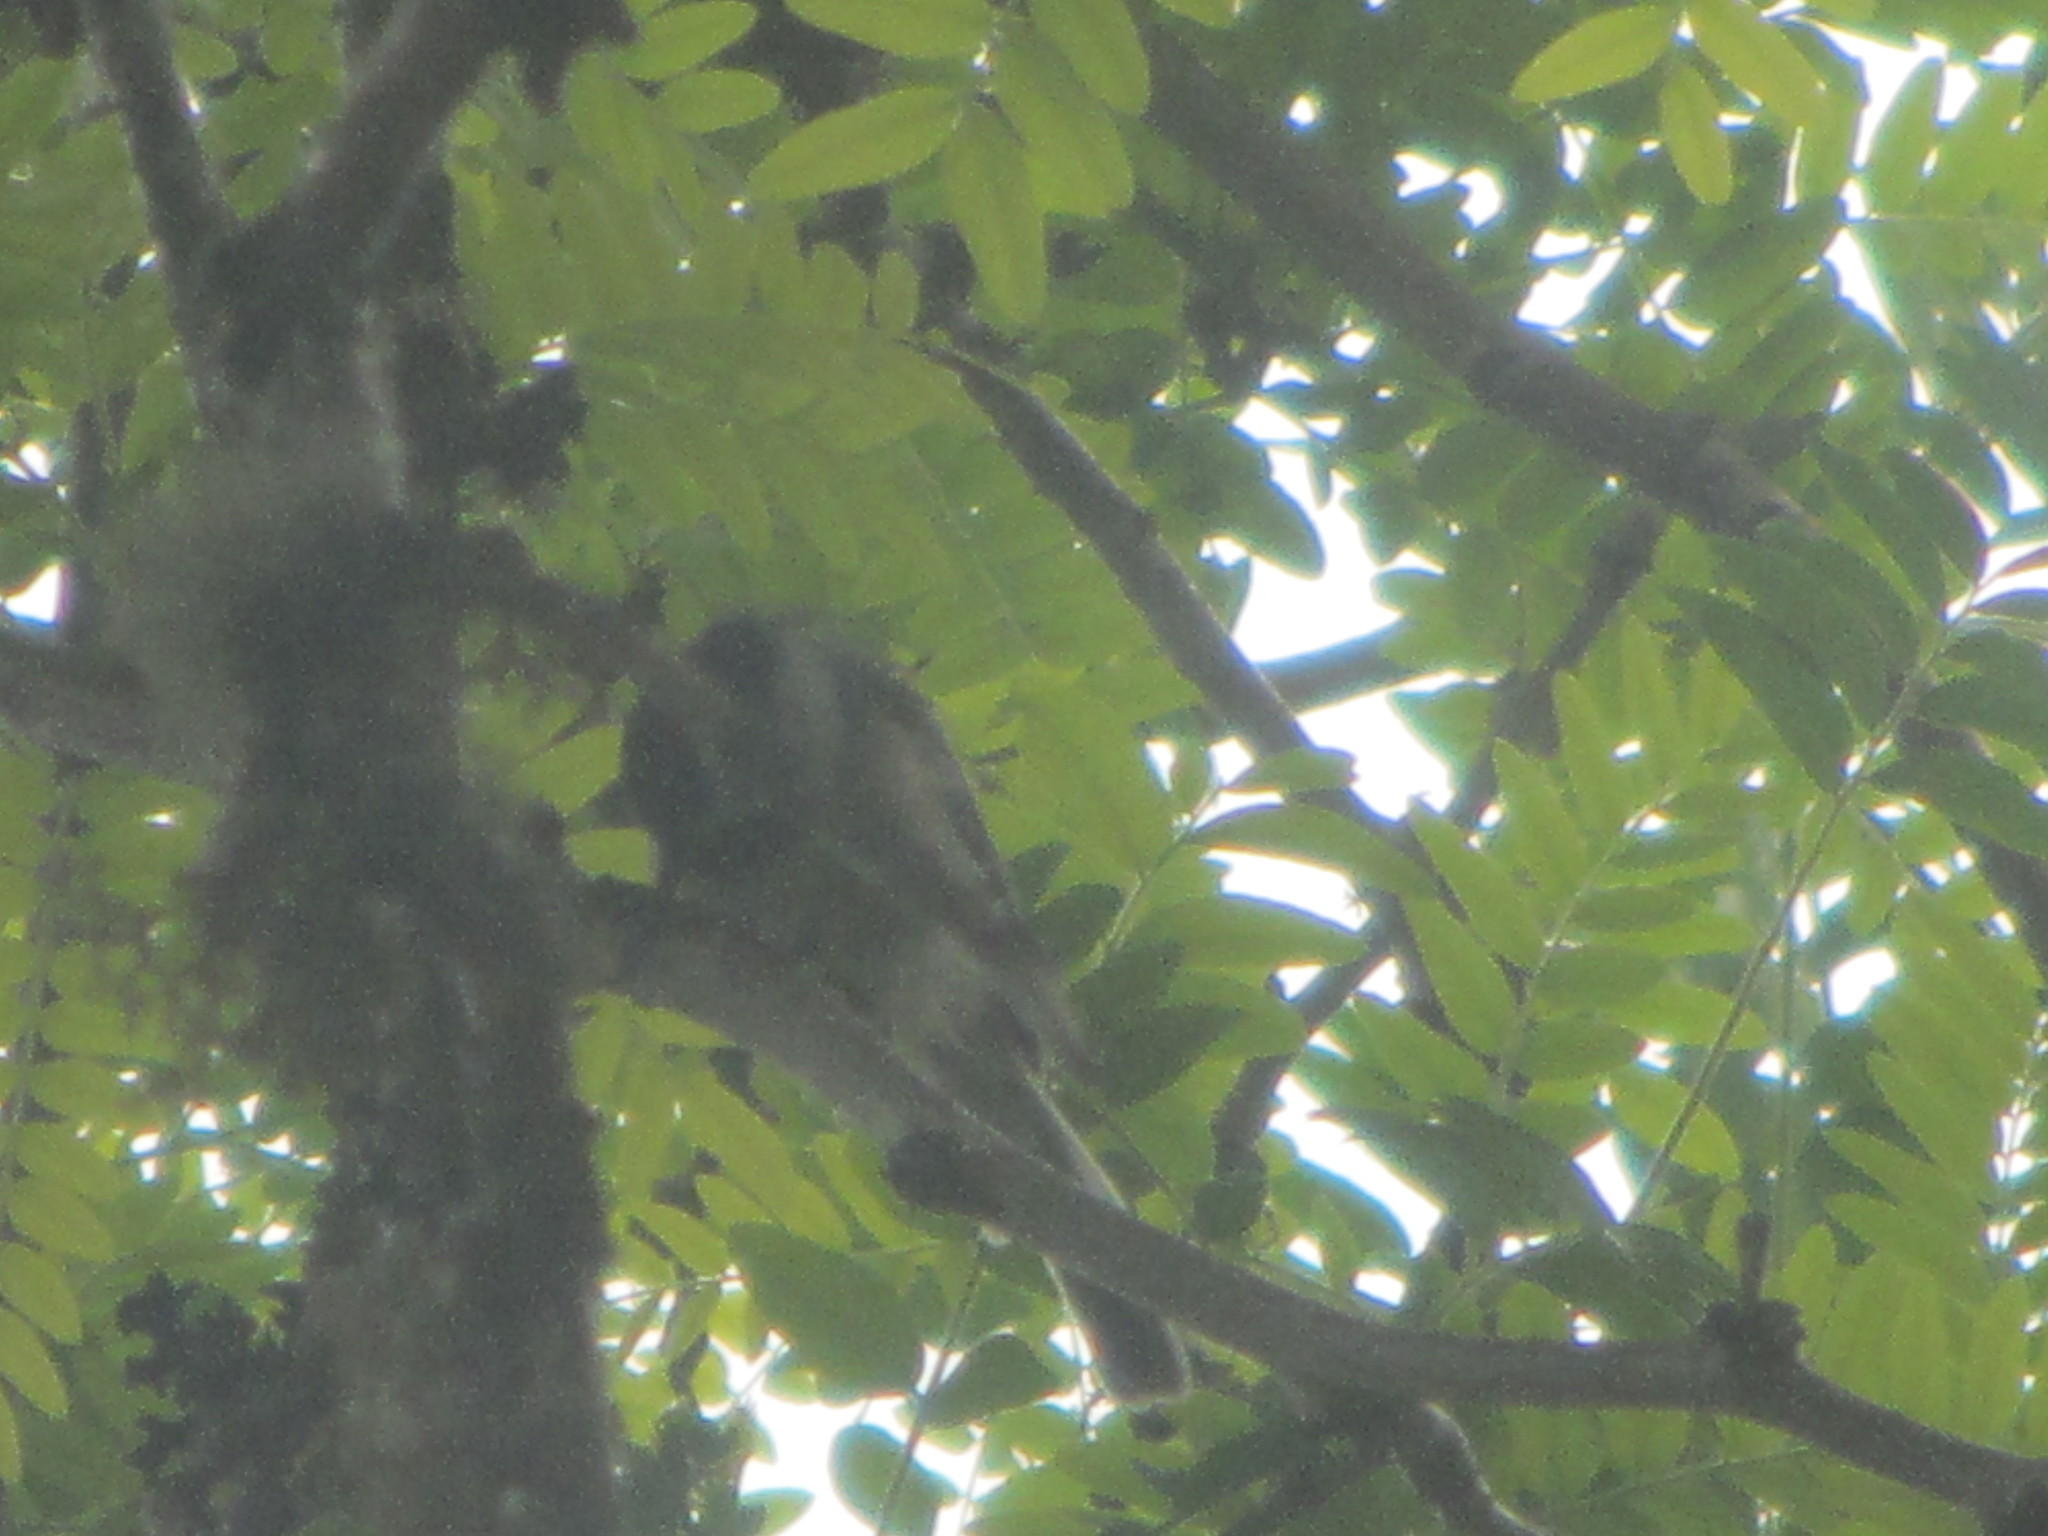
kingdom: Animalia
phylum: Chordata
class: Aves
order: Passeriformes
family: Paridae
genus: Poecile
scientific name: Poecile atricapillus
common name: Black-capped chickadee
